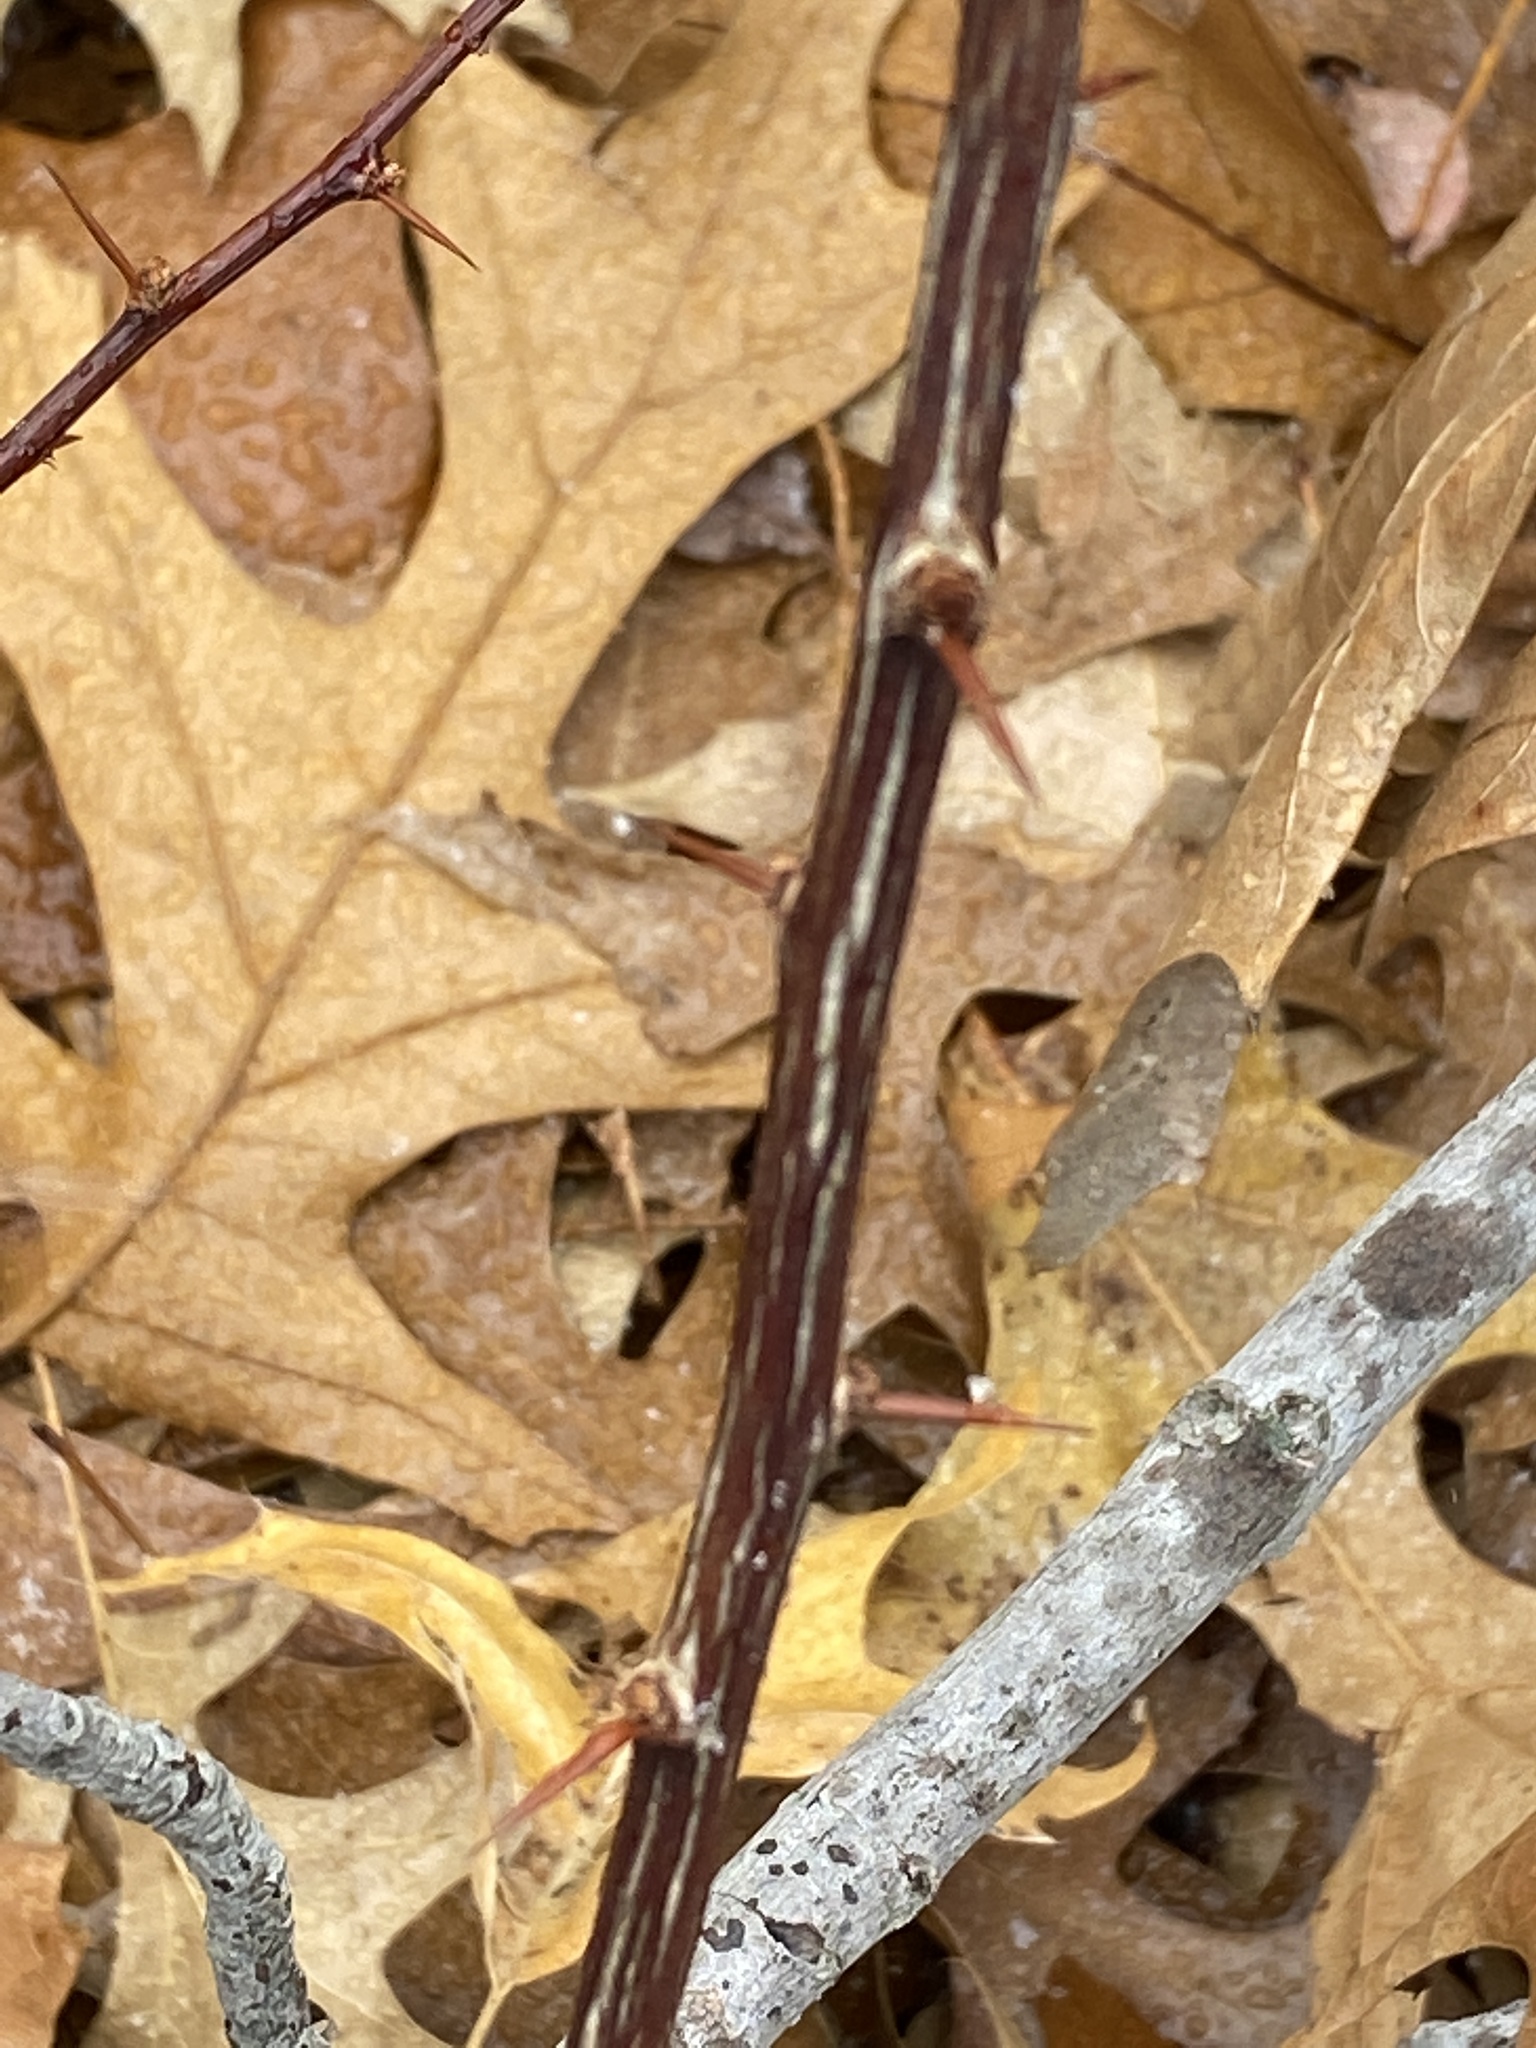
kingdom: Plantae
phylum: Tracheophyta
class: Magnoliopsida
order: Ranunculales
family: Berberidaceae
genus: Berberis
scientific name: Berberis thunbergii
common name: Japanese barberry
